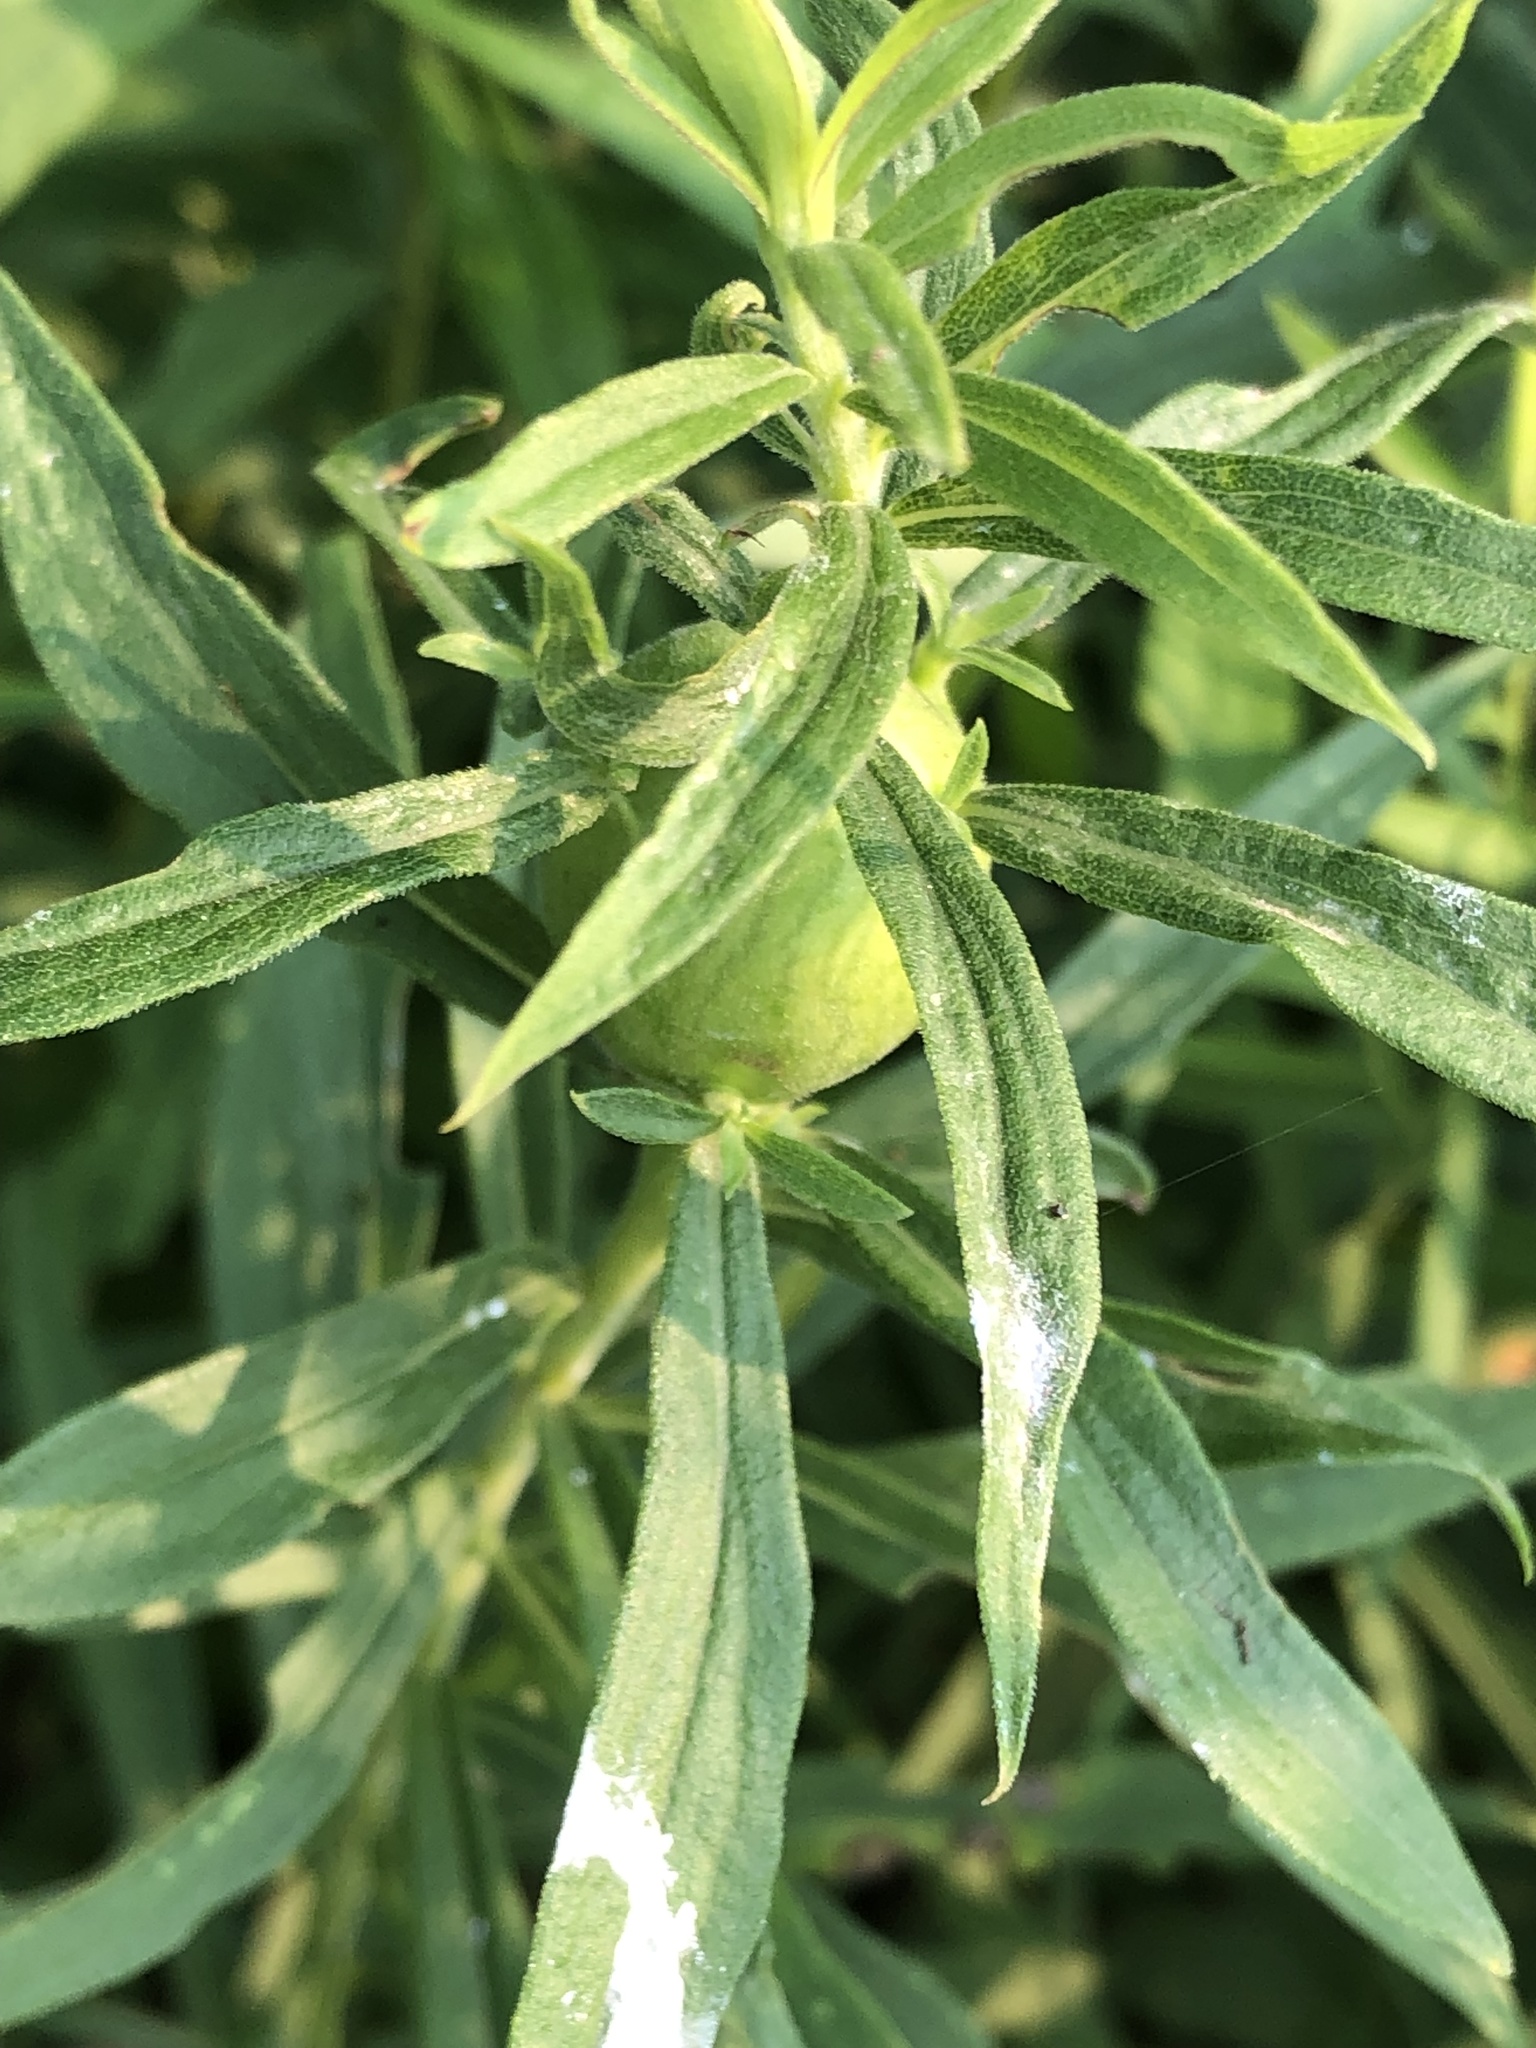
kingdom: Animalia
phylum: Arthropoda
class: Insecta
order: Diptera
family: Tephritidae
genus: Eurosta
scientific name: Eurosta solidaginis
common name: Goldenrod gall fly
